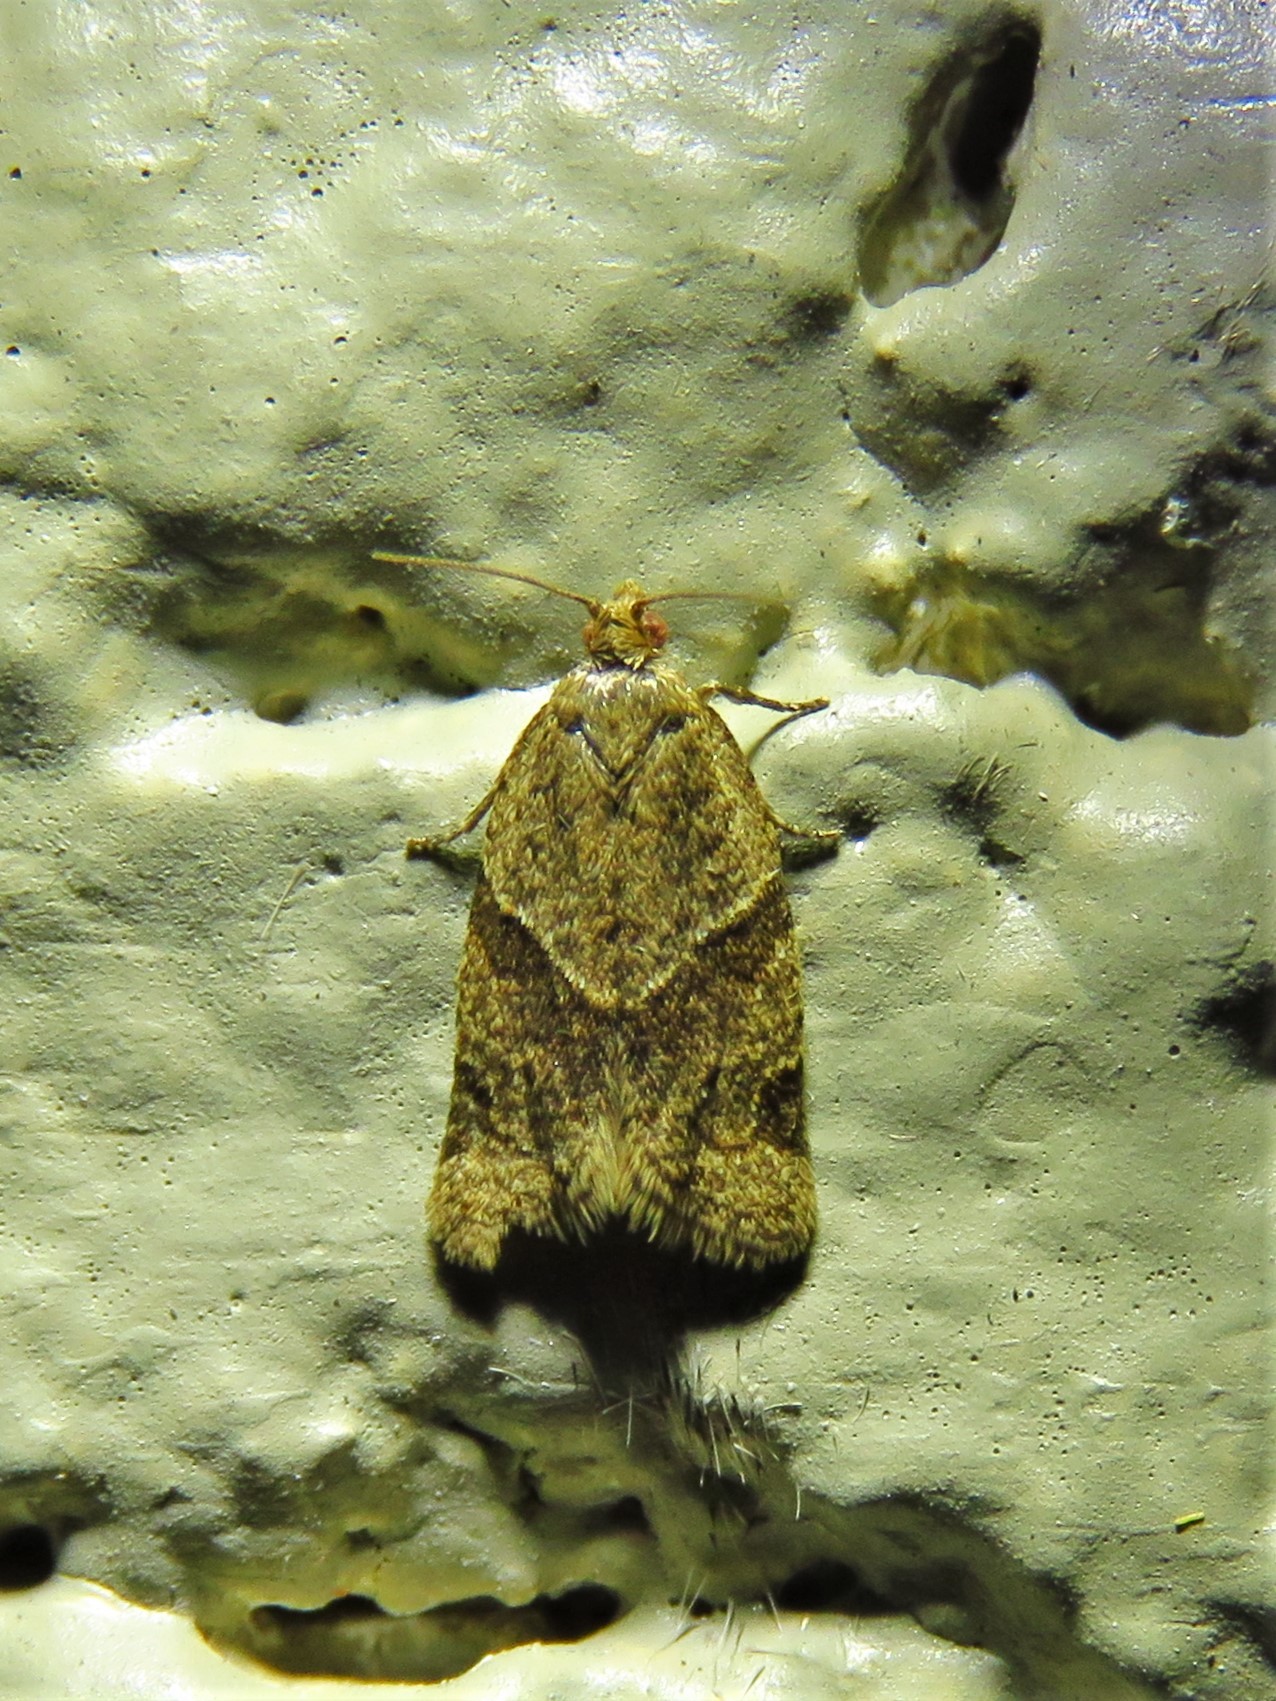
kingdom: Animalia
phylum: Arthropoda
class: Insecta
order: Lepidoptera
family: Tortricidae
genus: Clepsis
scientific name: Clepsis peritana
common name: Garden tortrix
